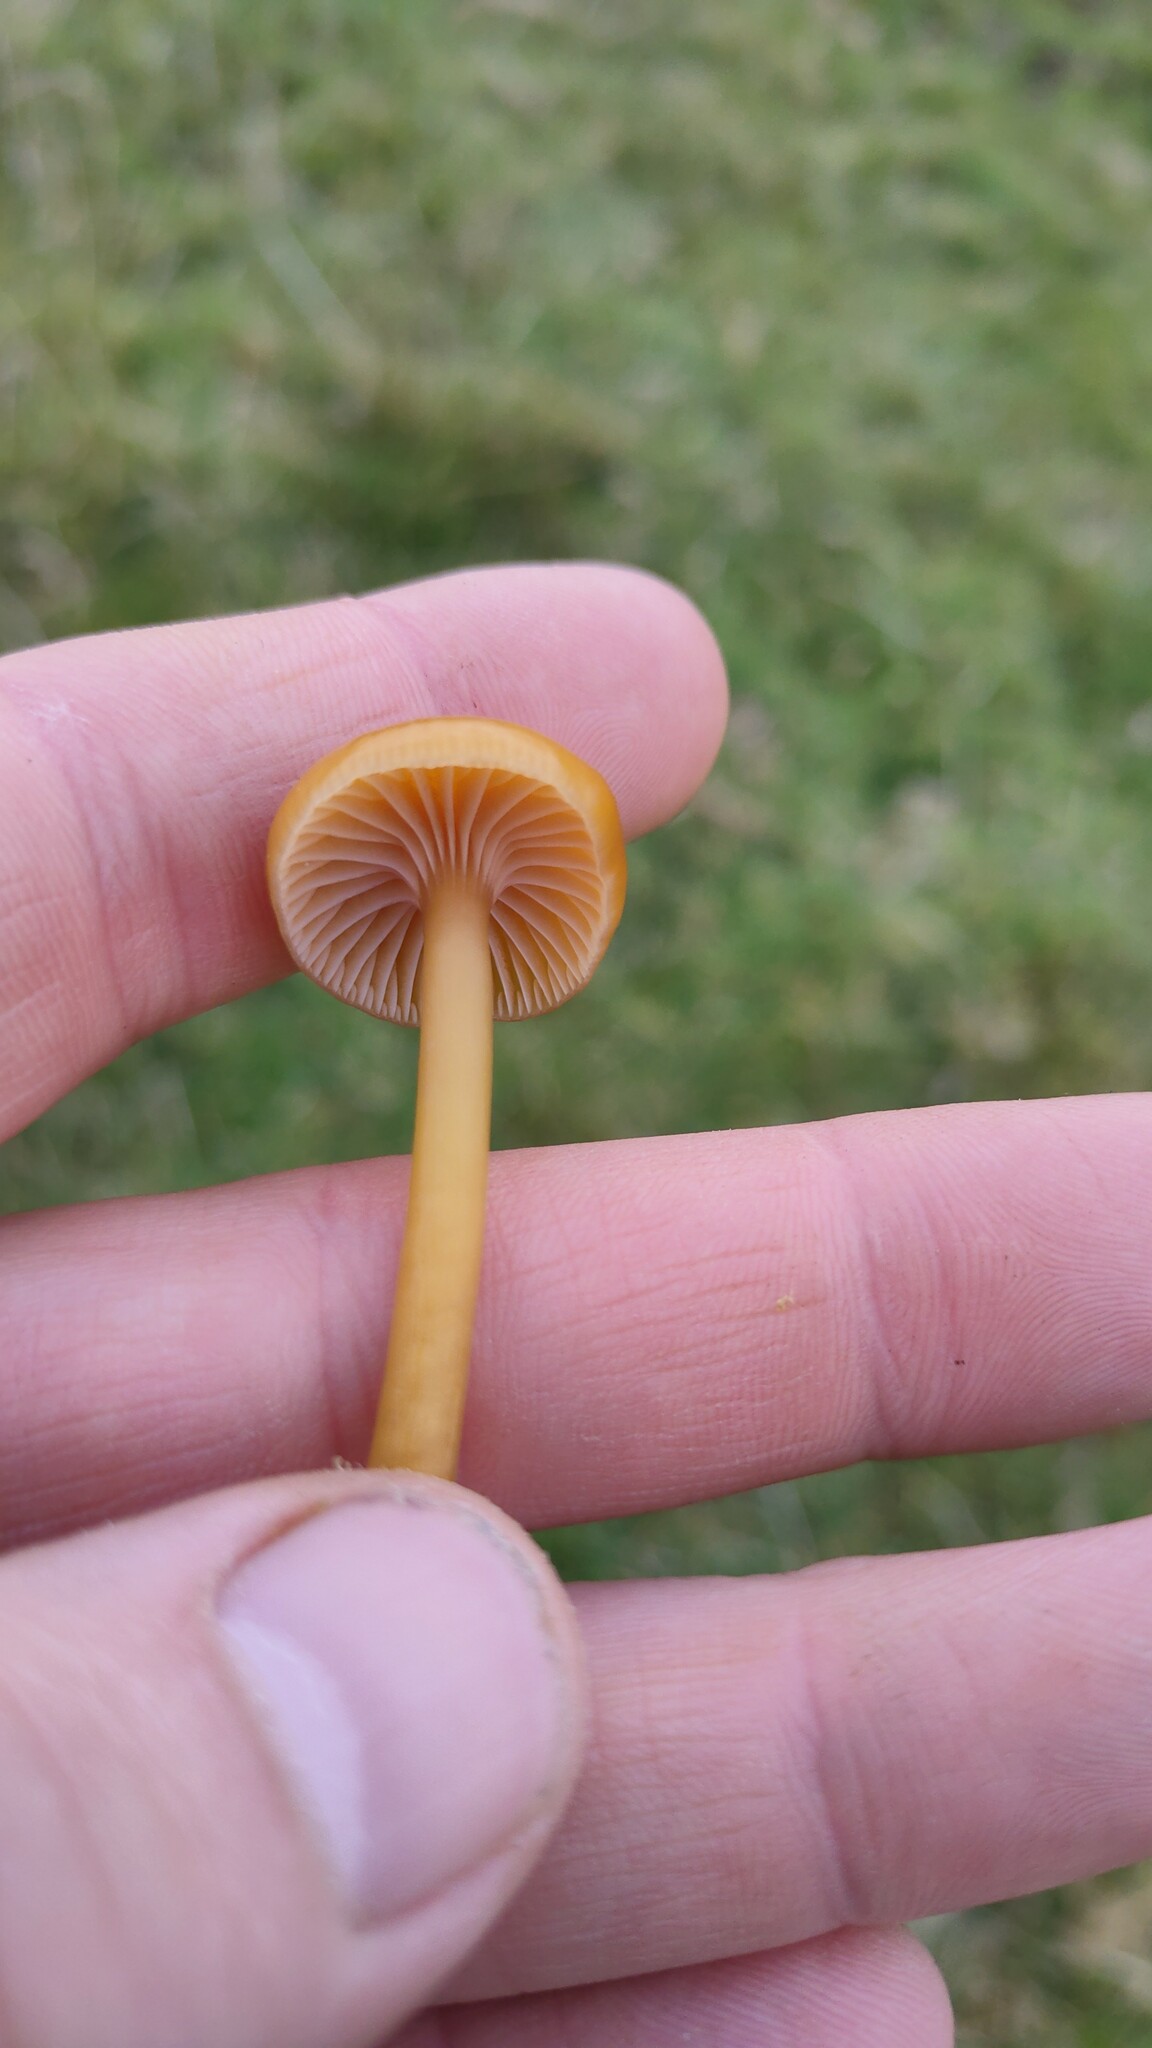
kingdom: Fungi
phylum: Basidiomycota
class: Agaricomycetes
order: Agaricales
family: Hygrophoraceae
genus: Gliophorus
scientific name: Gliophorus laetus
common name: Heath waxcap
